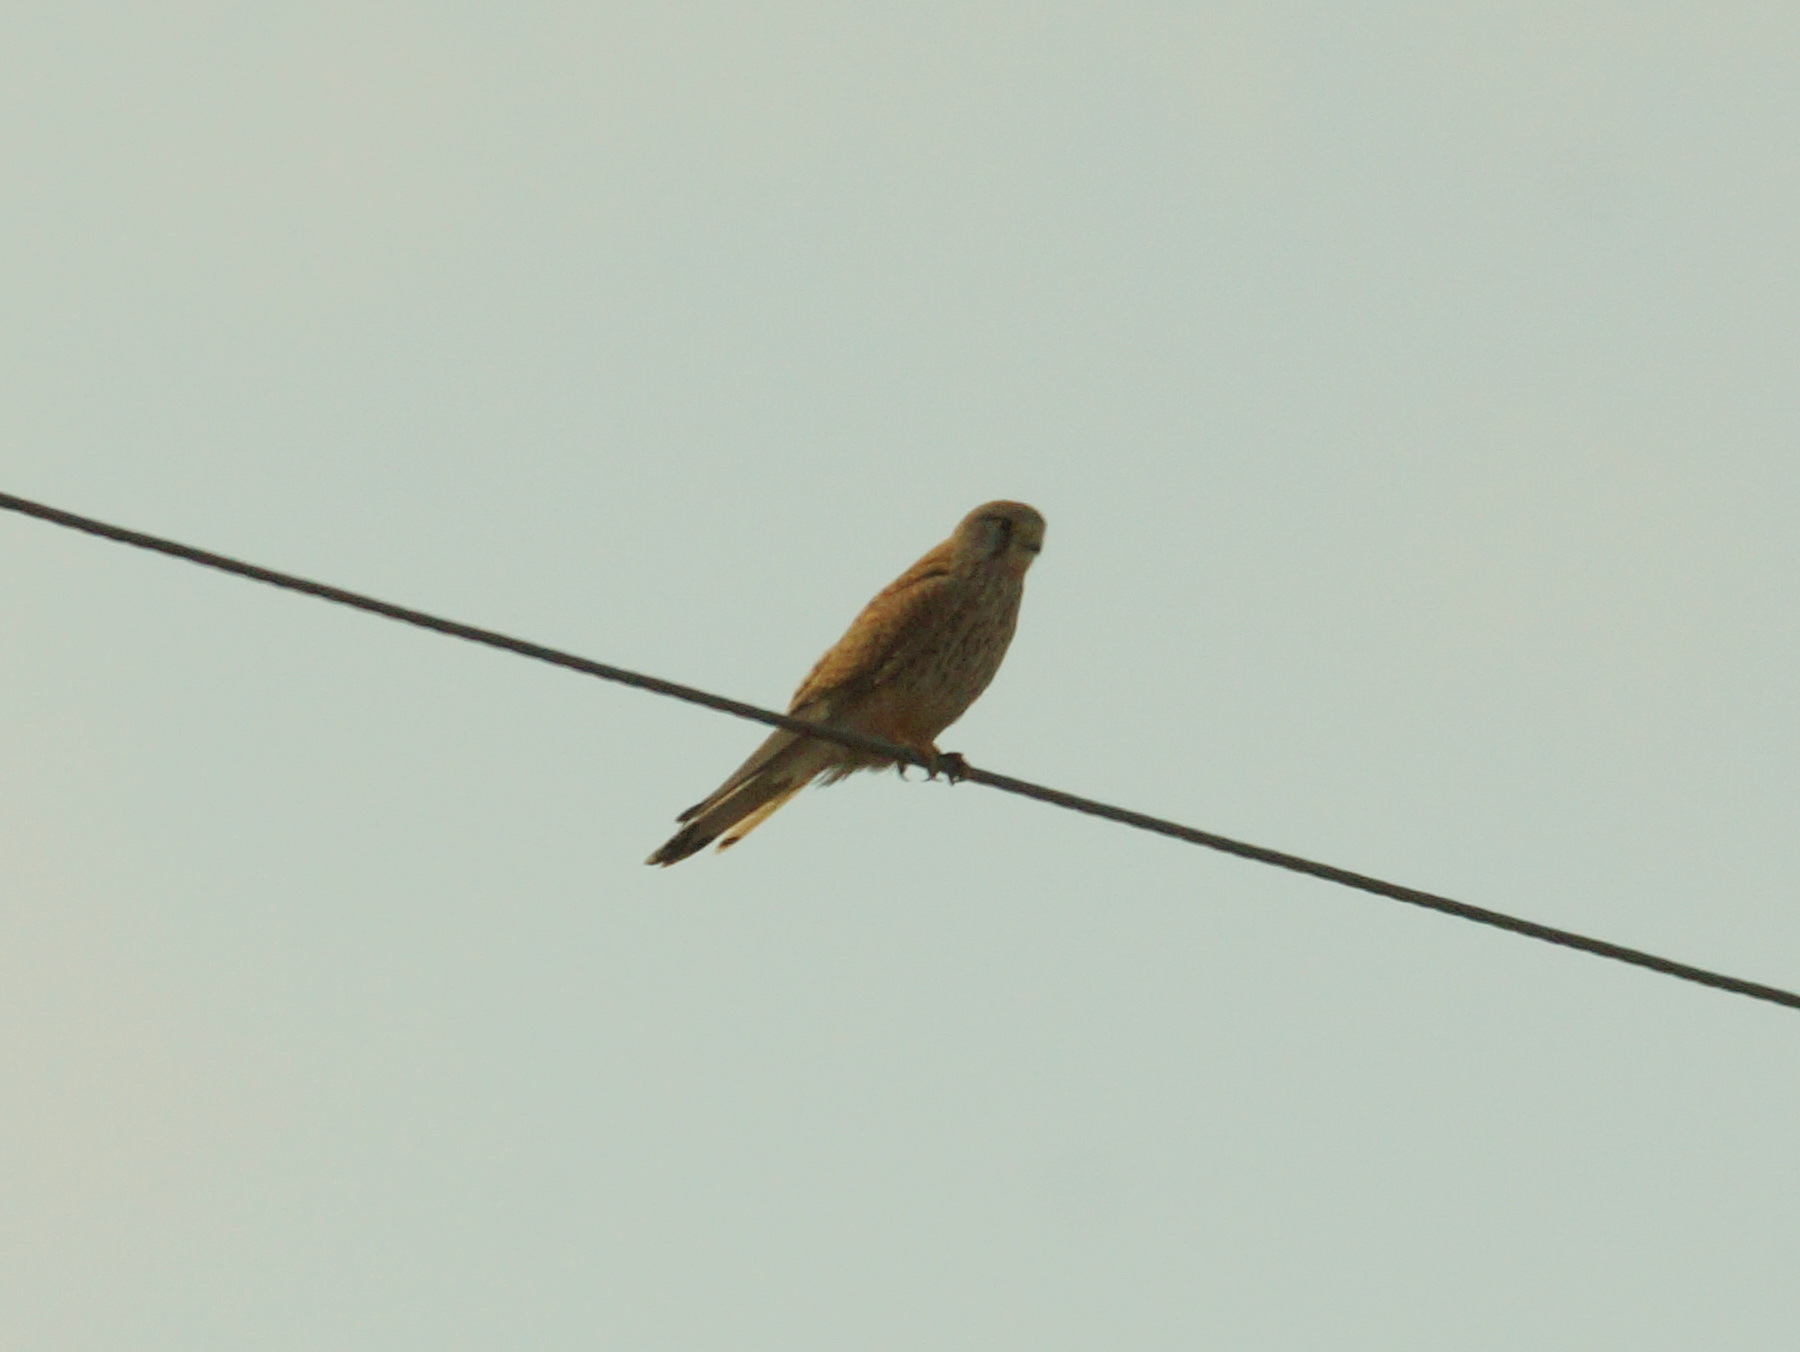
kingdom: Animalia
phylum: Chordata
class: Aves
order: Falconiformes
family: Falconidae
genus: Falco
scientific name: Falco tinnunculus
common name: Common kestrel
